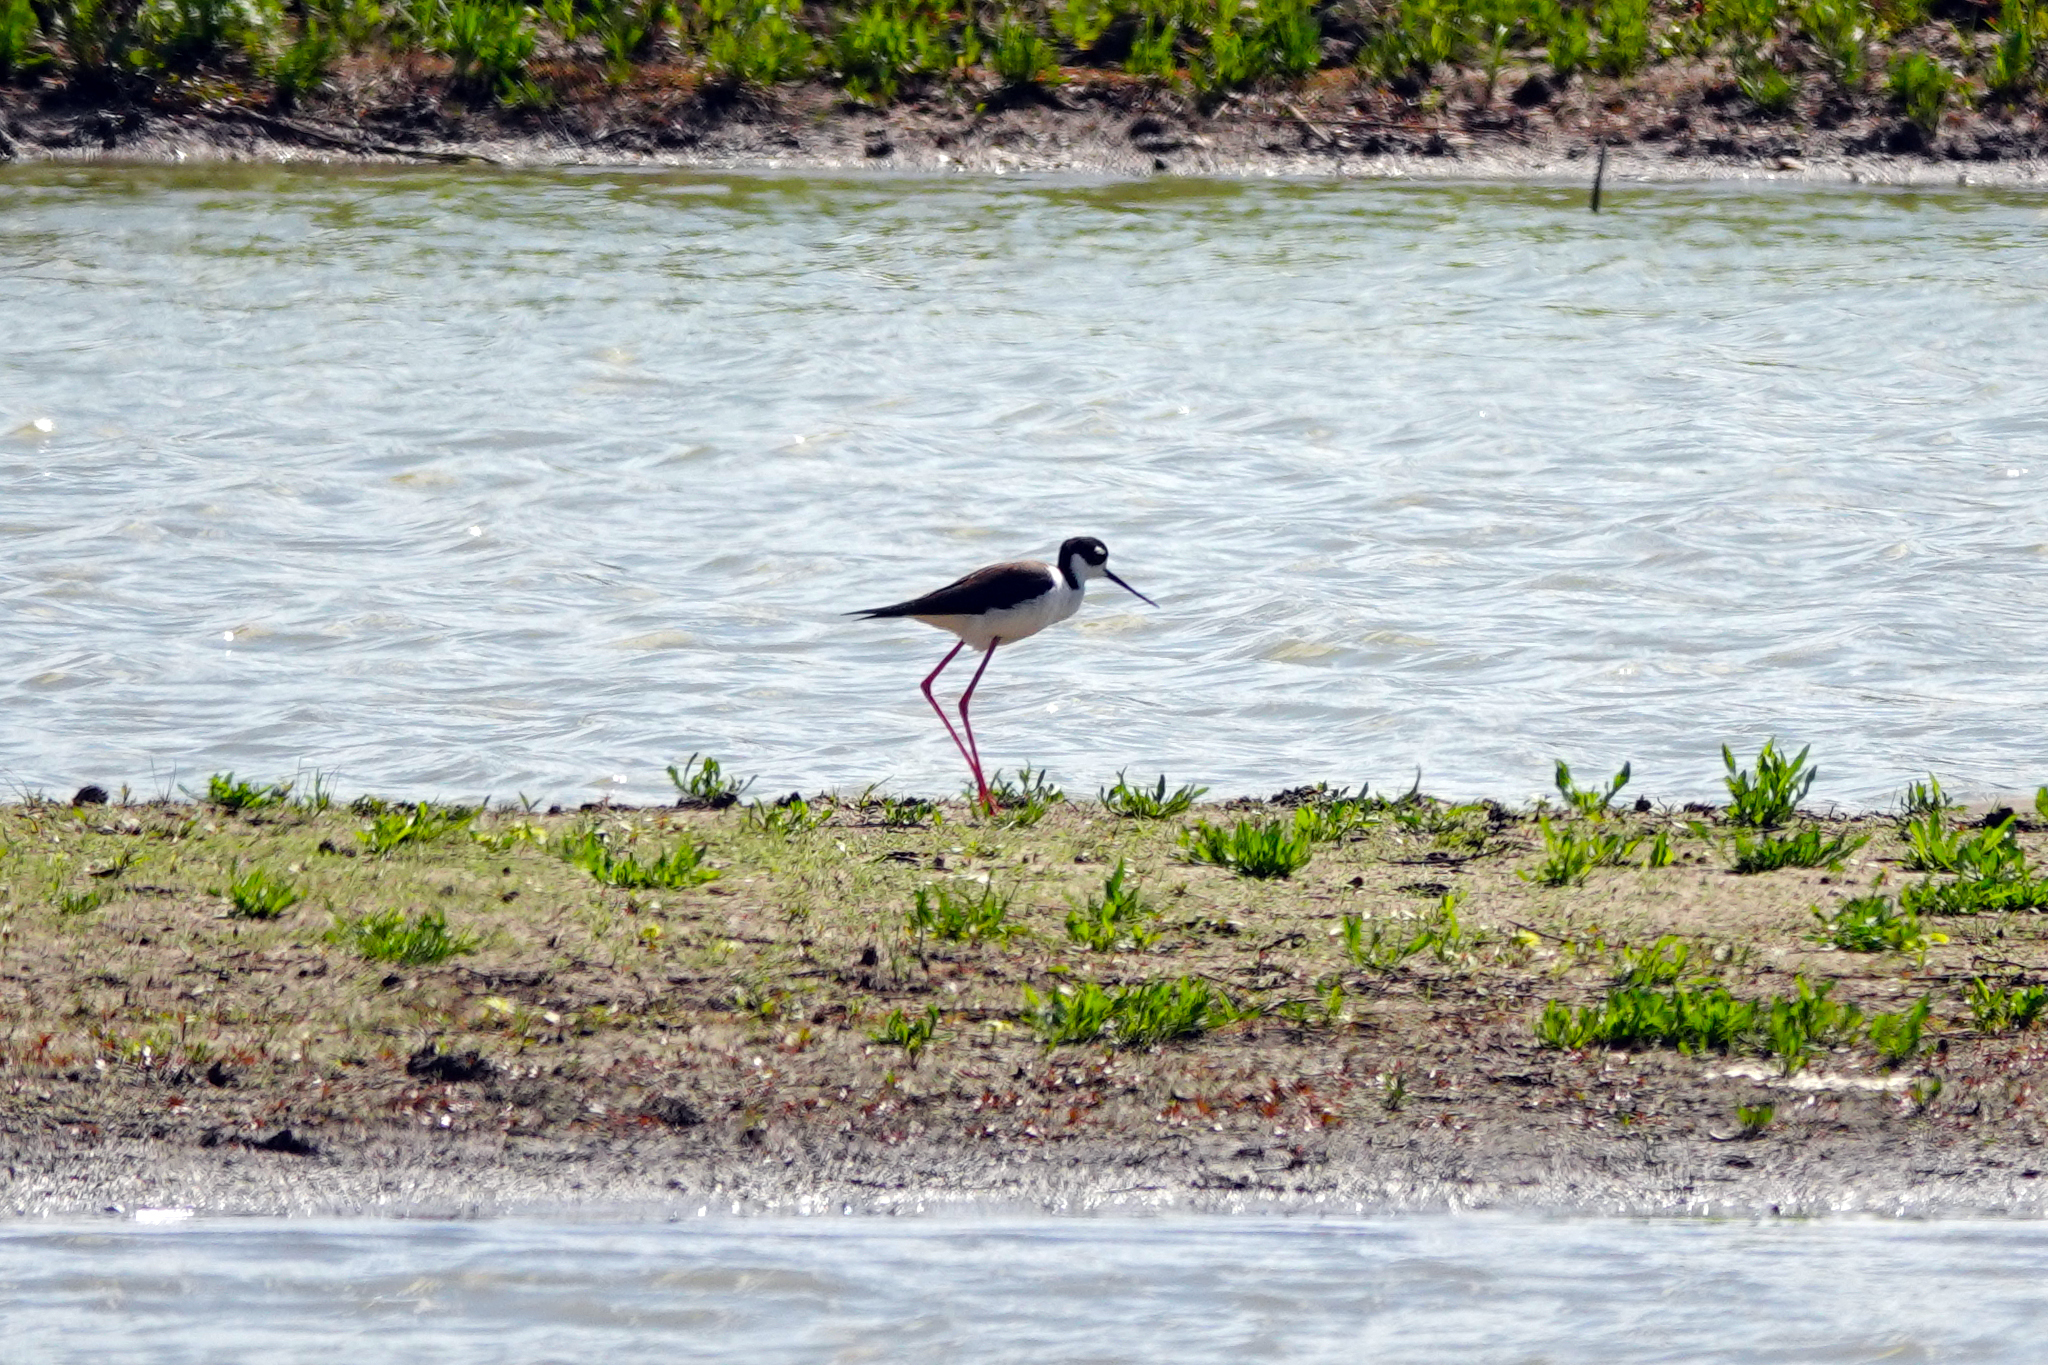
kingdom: Animalia
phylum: Chordata
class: Aves
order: Charadriiformes
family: Recurvirostridae
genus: Himantopus
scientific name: Himantopus mexicanus
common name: Black-necked stilt
